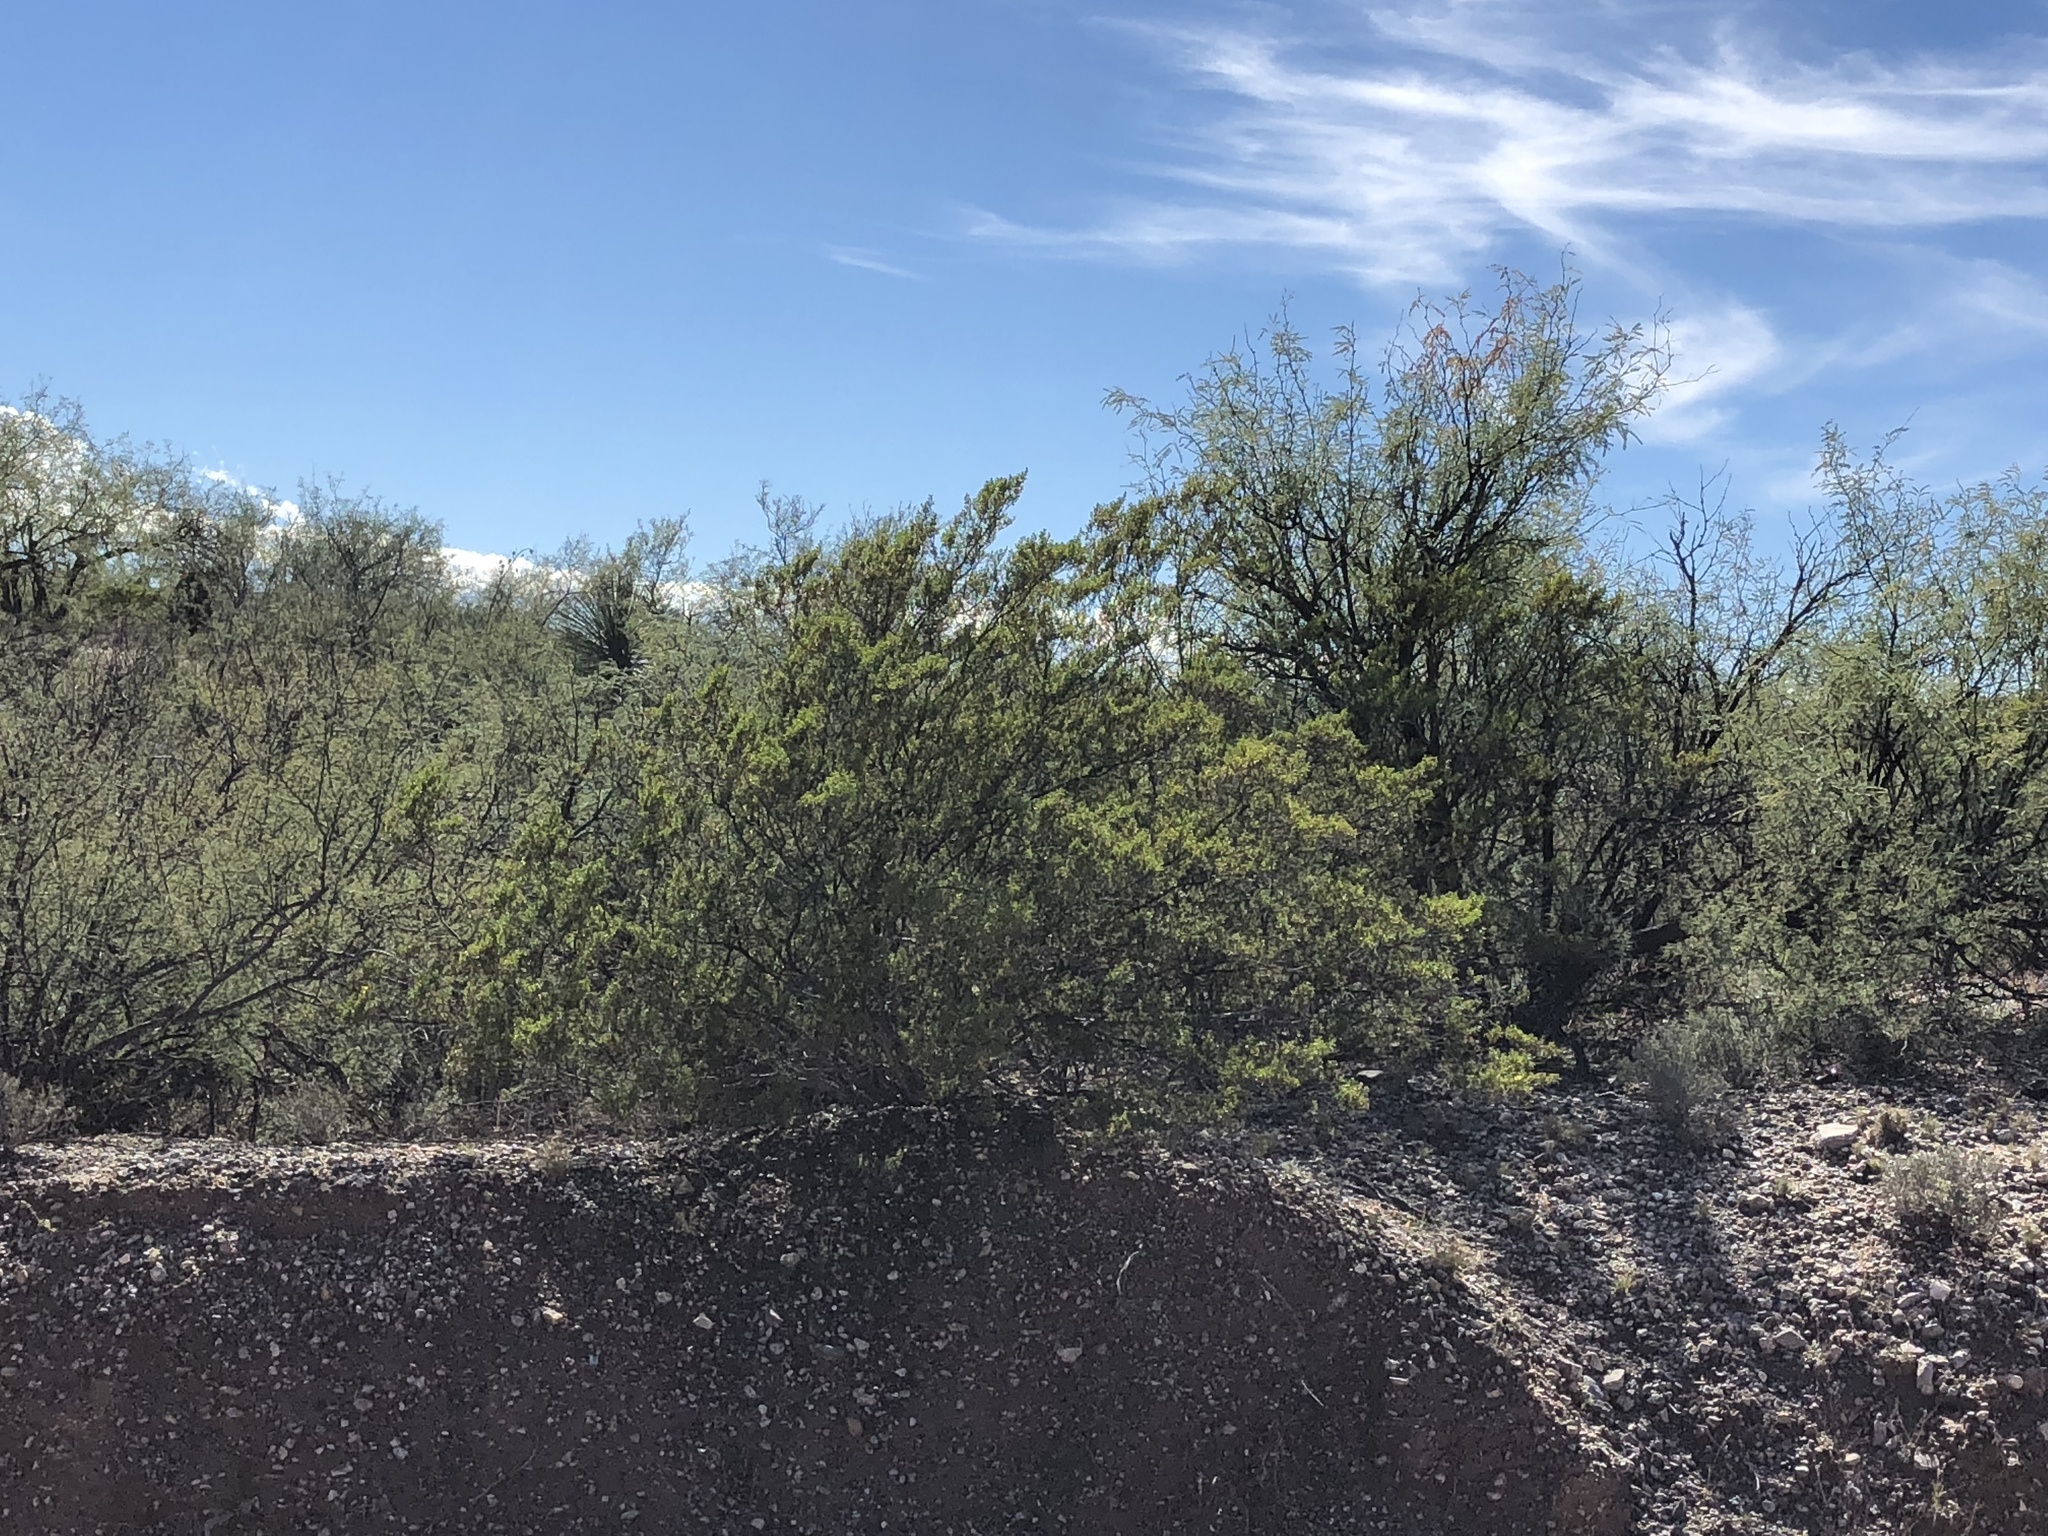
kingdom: Plantae
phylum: Tracheophyta
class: Magnoliopsida
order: Zygophyllales
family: Zygophyllaceae
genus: Larrea
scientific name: Larrea tridentata
